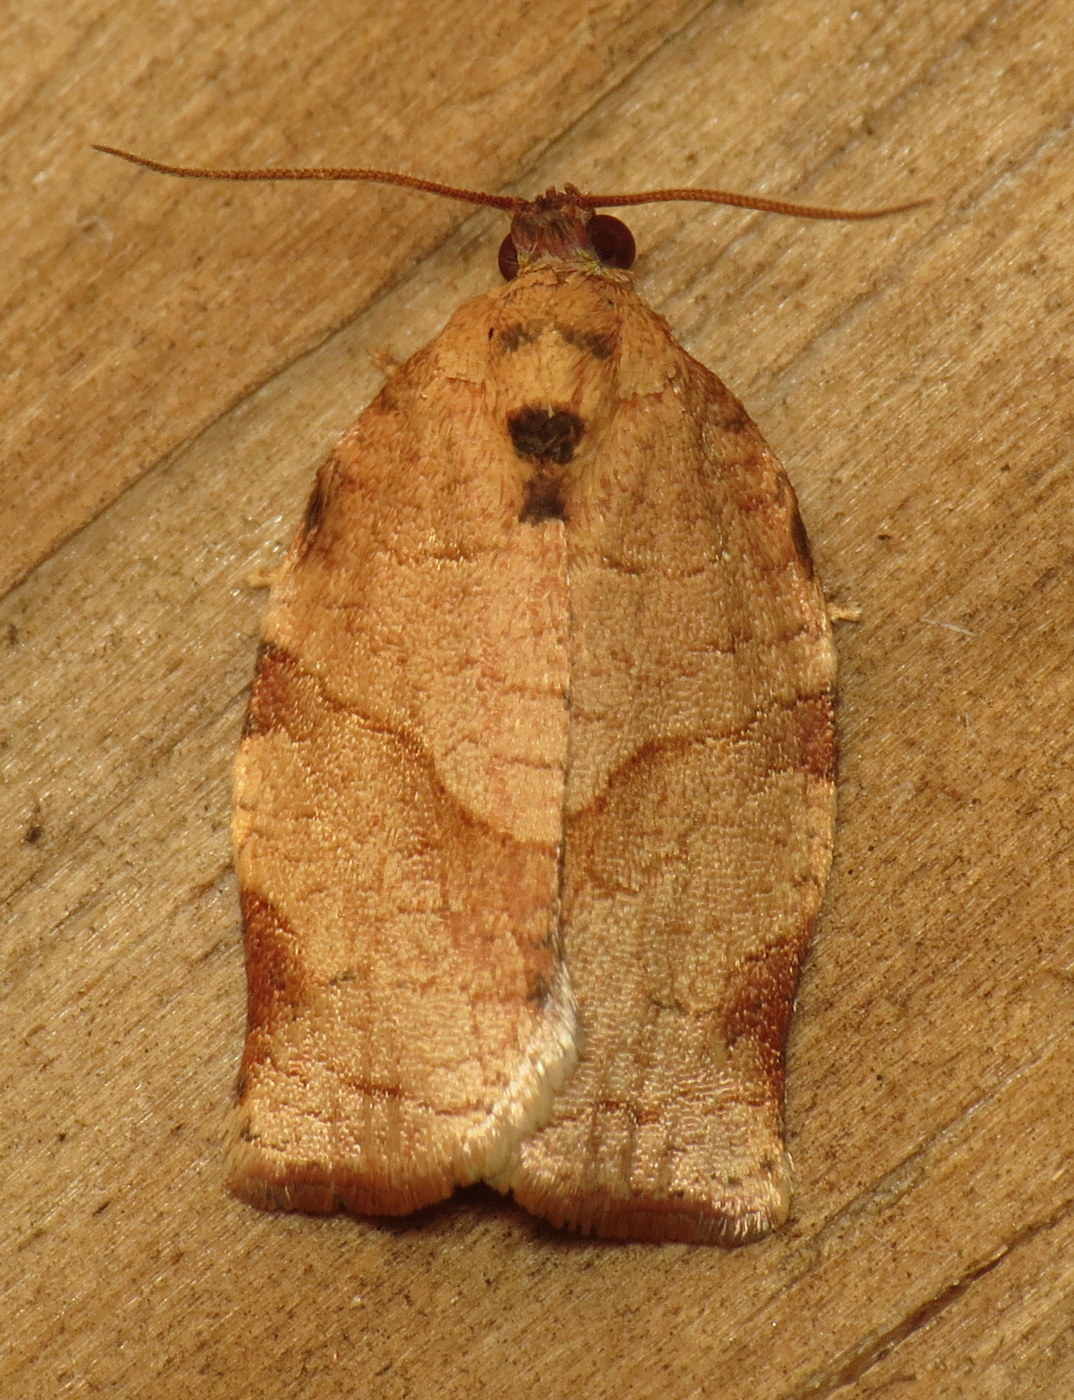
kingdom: Animalia
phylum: Arthropoda
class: Insecta
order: Lepidoptera
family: Tortricidae
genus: Choristoneura
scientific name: Choristoneura rosaceana
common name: Oblique-banded leafroller moth
